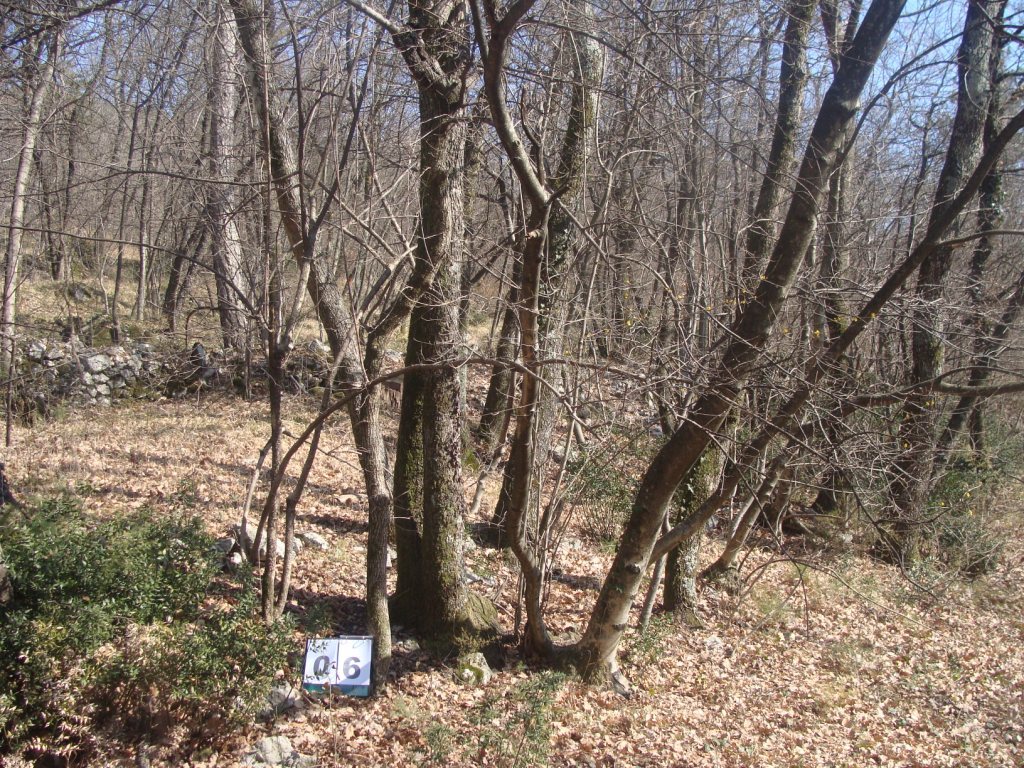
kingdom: Plantae
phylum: Tracheophyta
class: Magnoliopsida
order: Cornales
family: Cornaceae
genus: Cornus
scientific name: Cornus mas
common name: Cornelian-cherry
